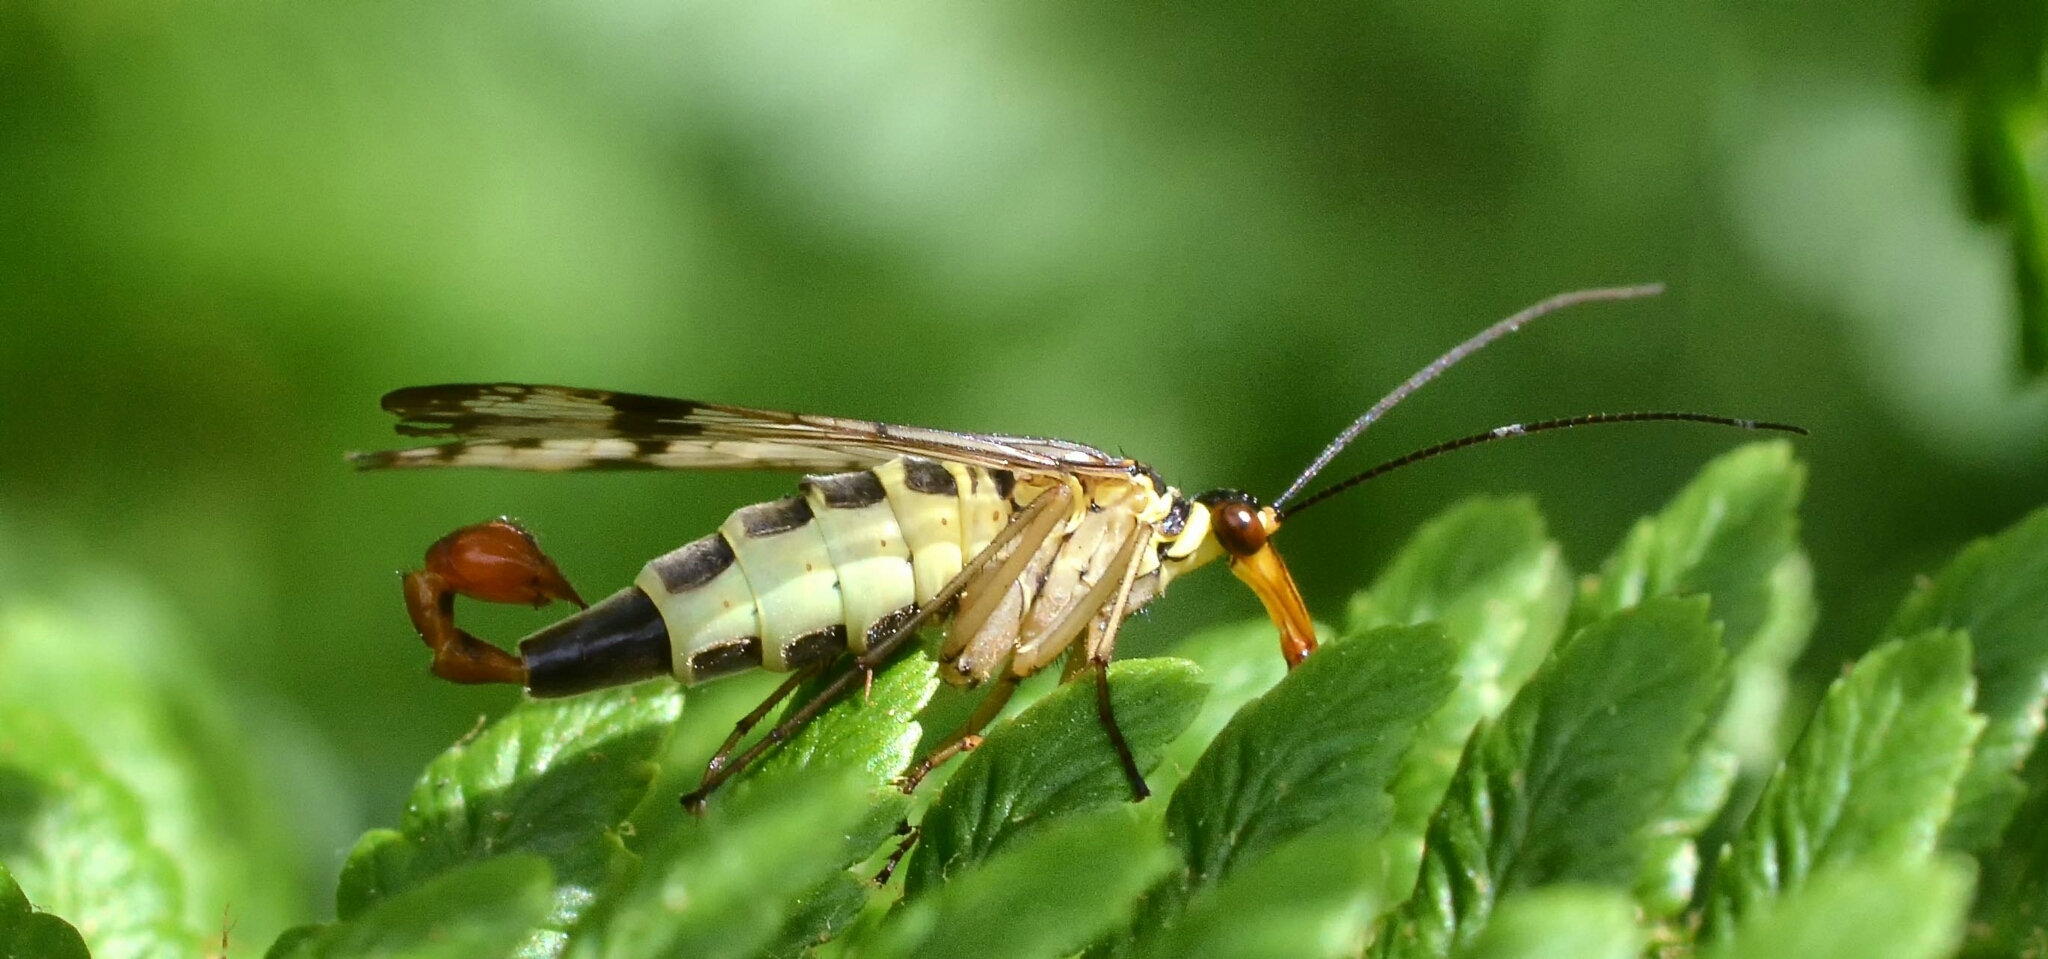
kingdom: Animalia
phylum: Arthropoda
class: Insecta
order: Mecoptera
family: Panorpidae
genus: Panorpa
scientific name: Panorpa
